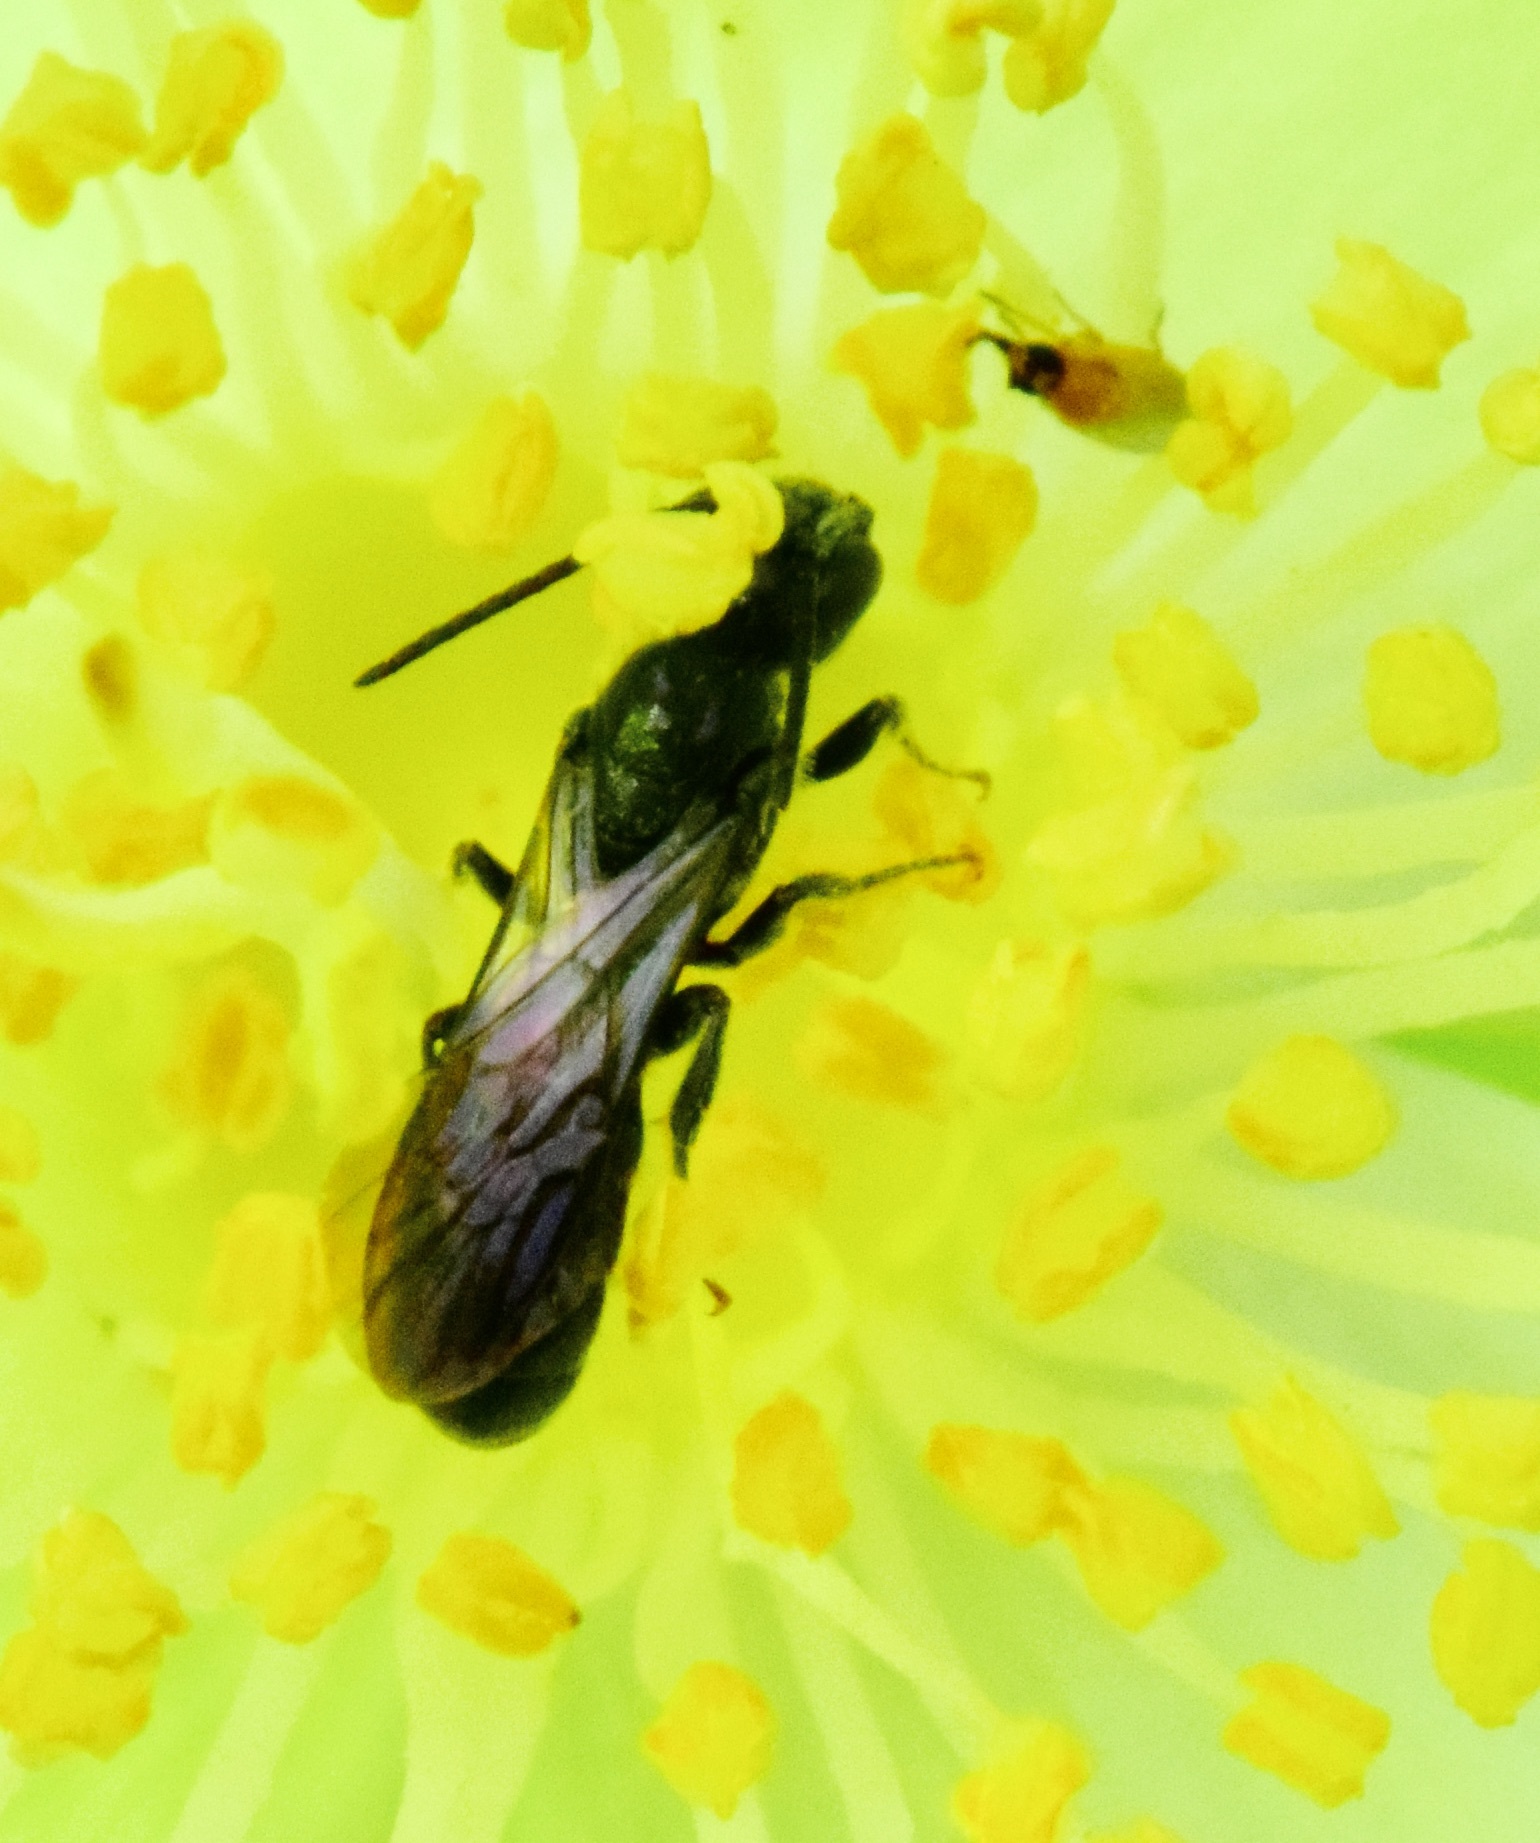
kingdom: Animalia
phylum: Arthropoda
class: Insecta
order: Hymenoptera
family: Megachilidae
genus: Chelostoma
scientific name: Chelostoma philadelphi
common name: Mock-orange scissor bee
